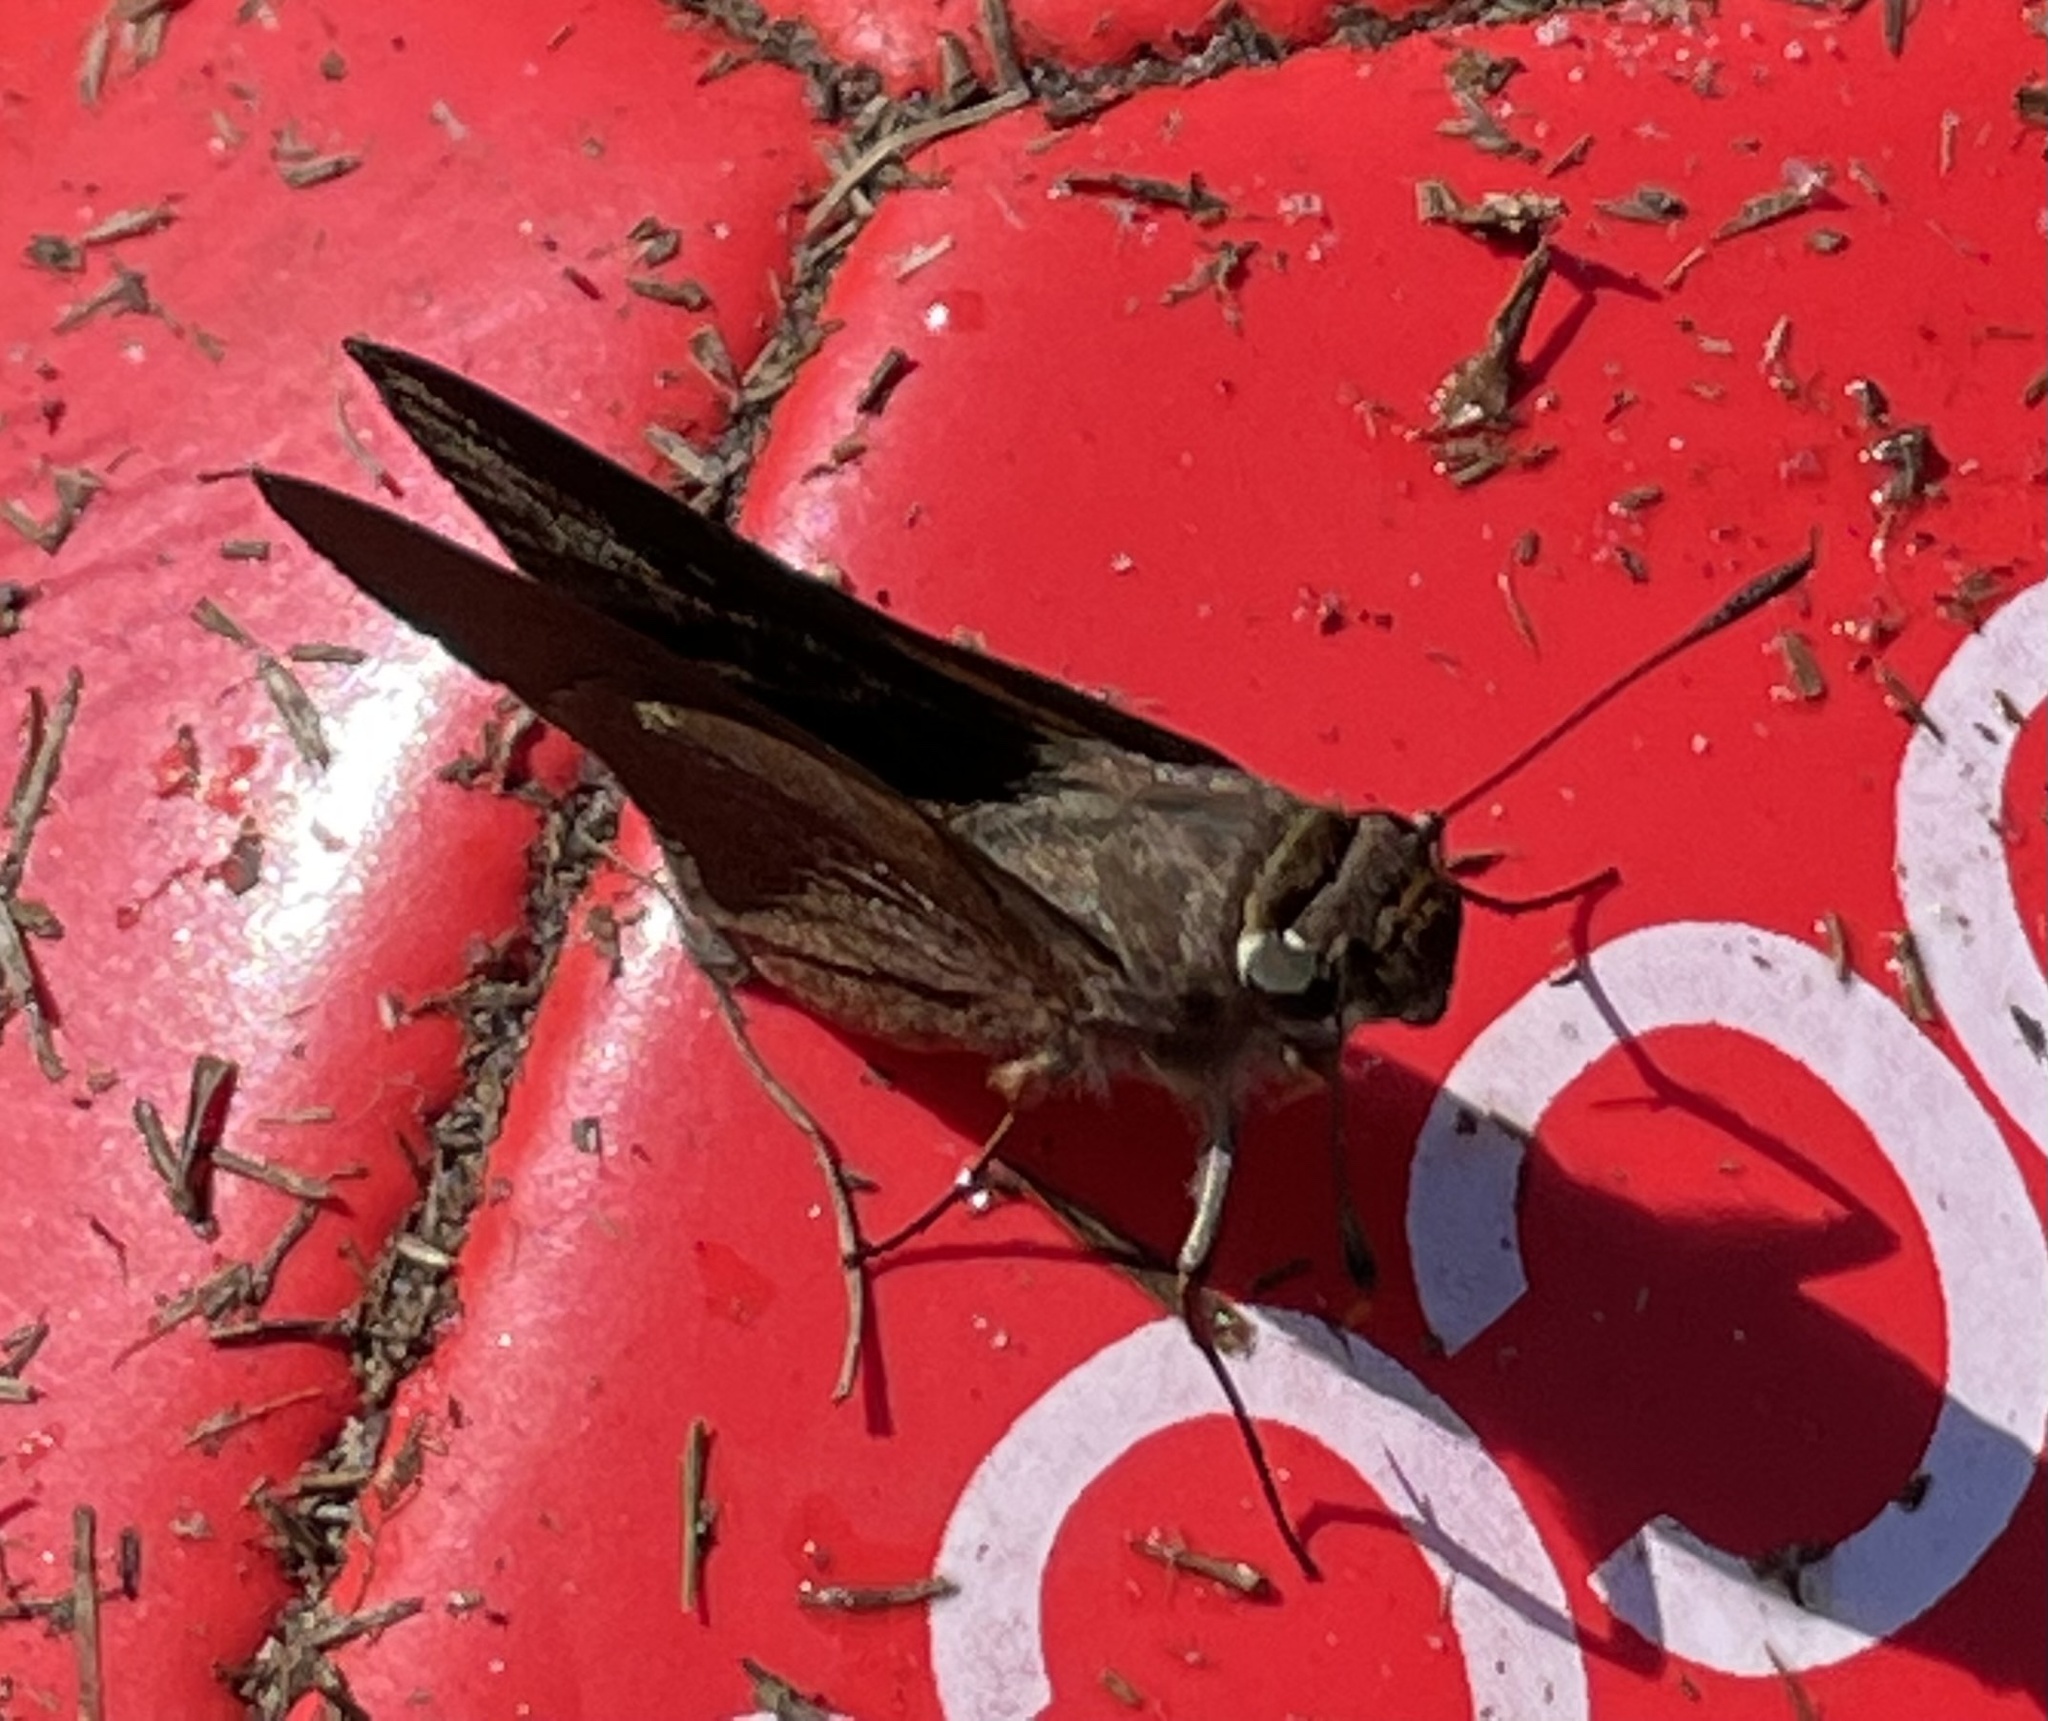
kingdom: Animalia
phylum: Arthropoda
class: Insecta
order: Lepidoptera
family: Hesperiidae
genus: Asbolis
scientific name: Asbolis capucinus
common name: Monk skipper
